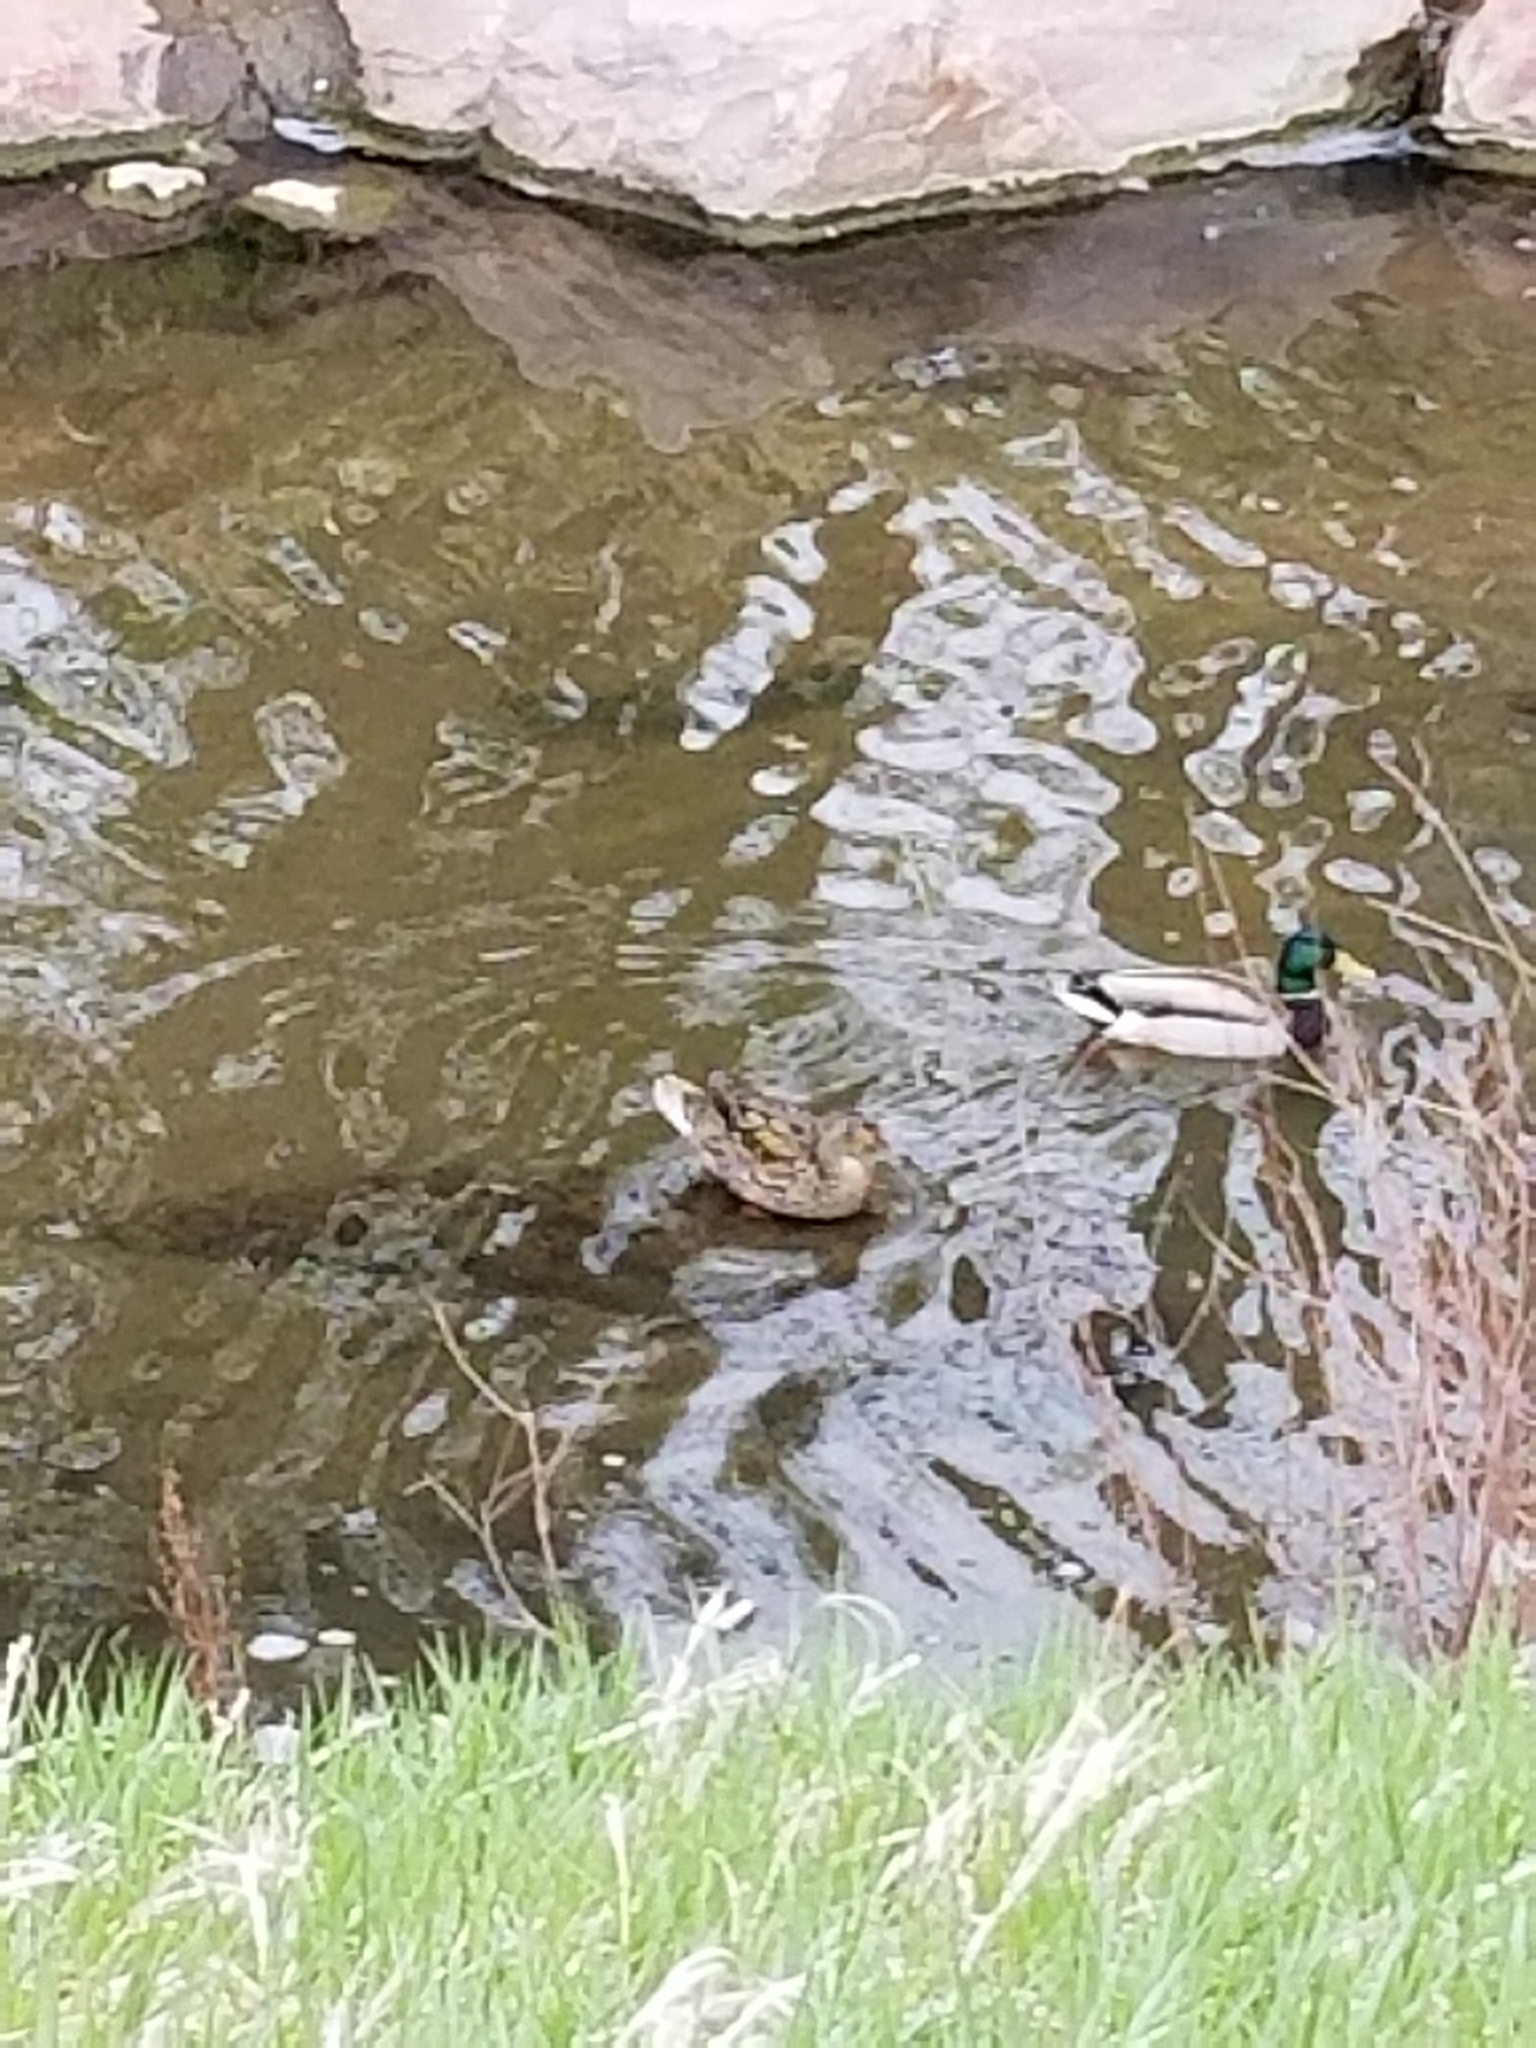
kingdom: Animalia
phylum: Chordata
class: Aves
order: Anseriformes
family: Anatidae
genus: Anas
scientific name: Anas platyrhynchos
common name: Mallard
